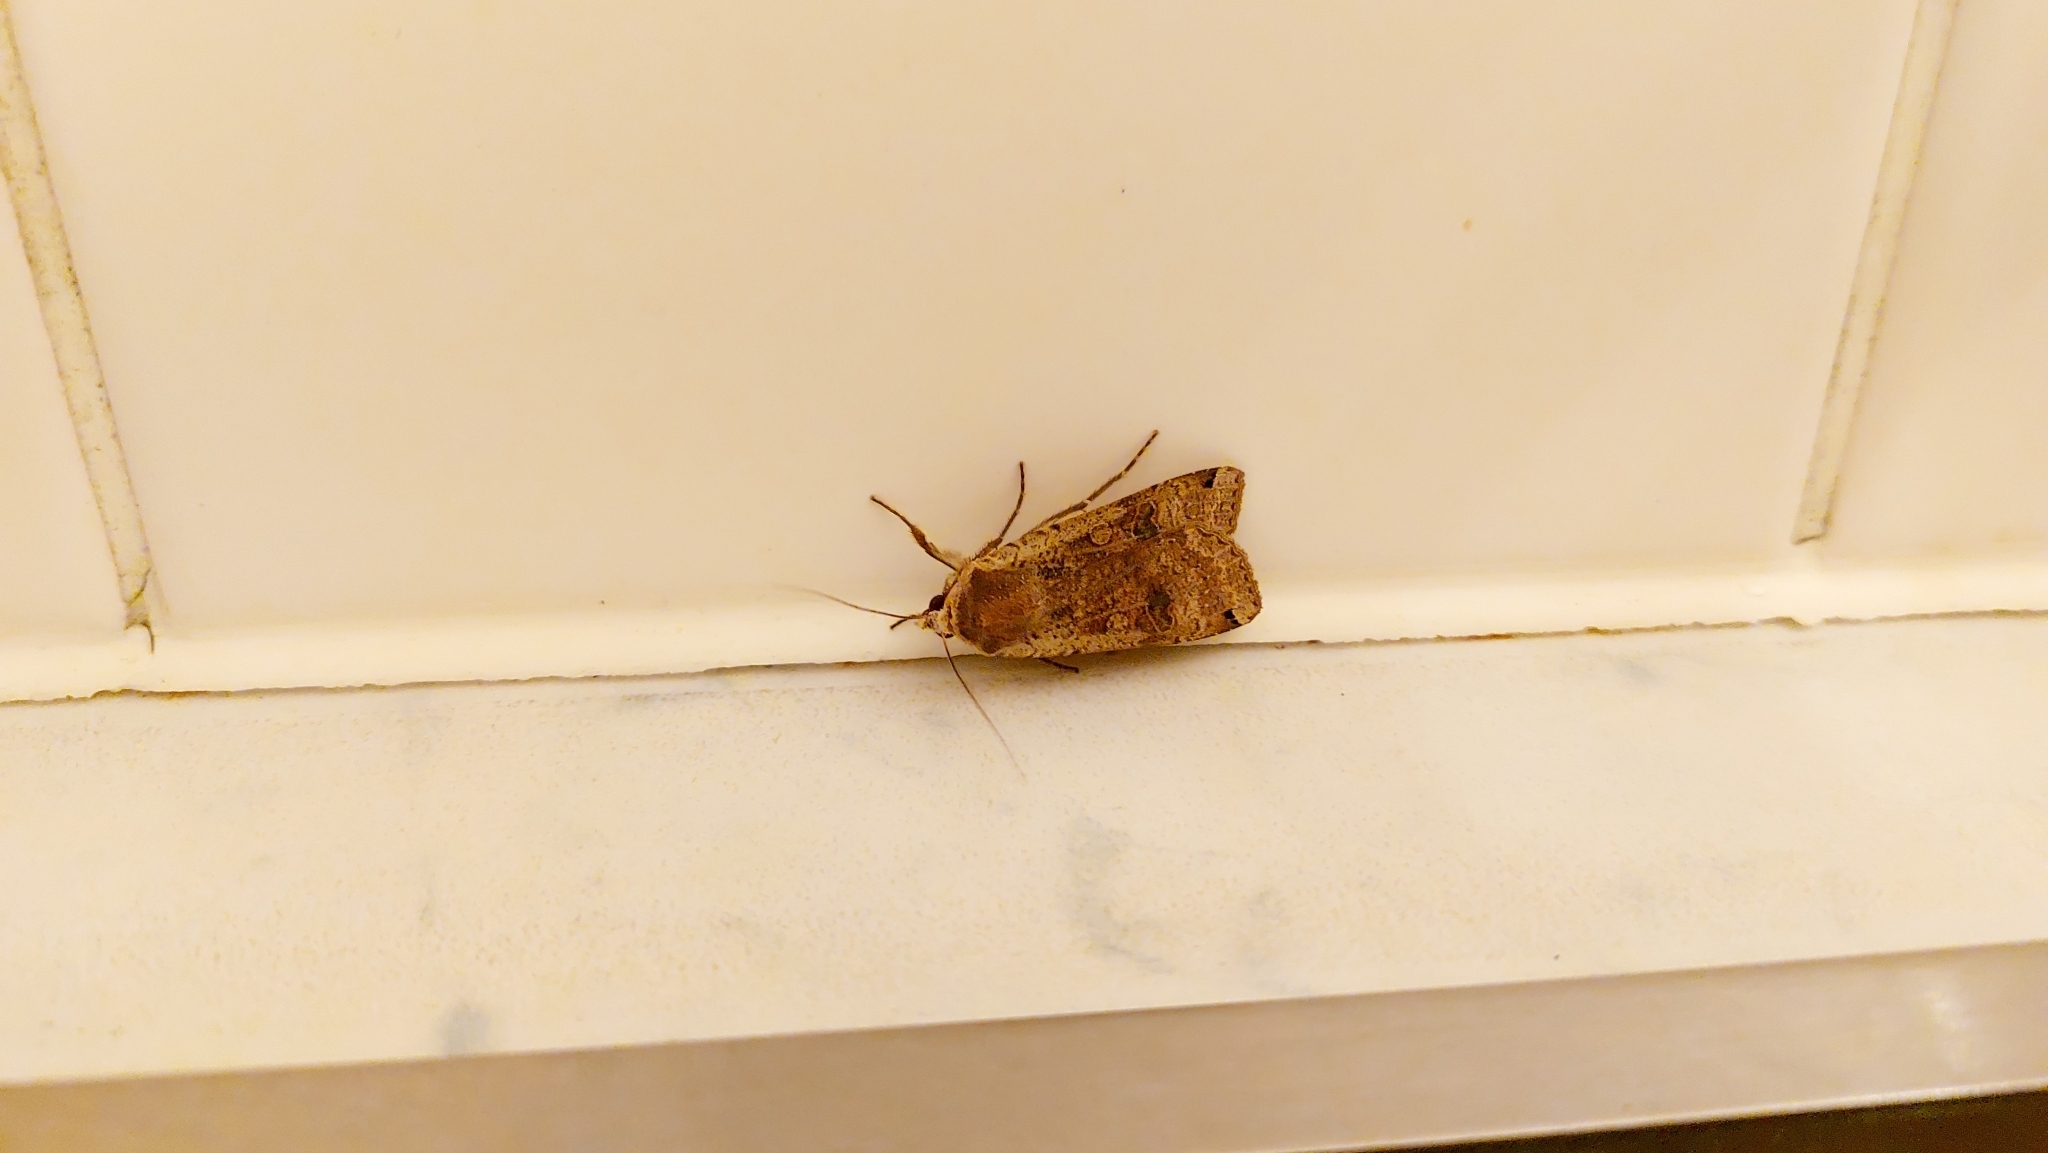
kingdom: Animalia
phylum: Arthropoda
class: Insecta
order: Lepidoptera
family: Noctuidae
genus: Noctua
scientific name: Noctua pronuba
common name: Large yellow underwing
